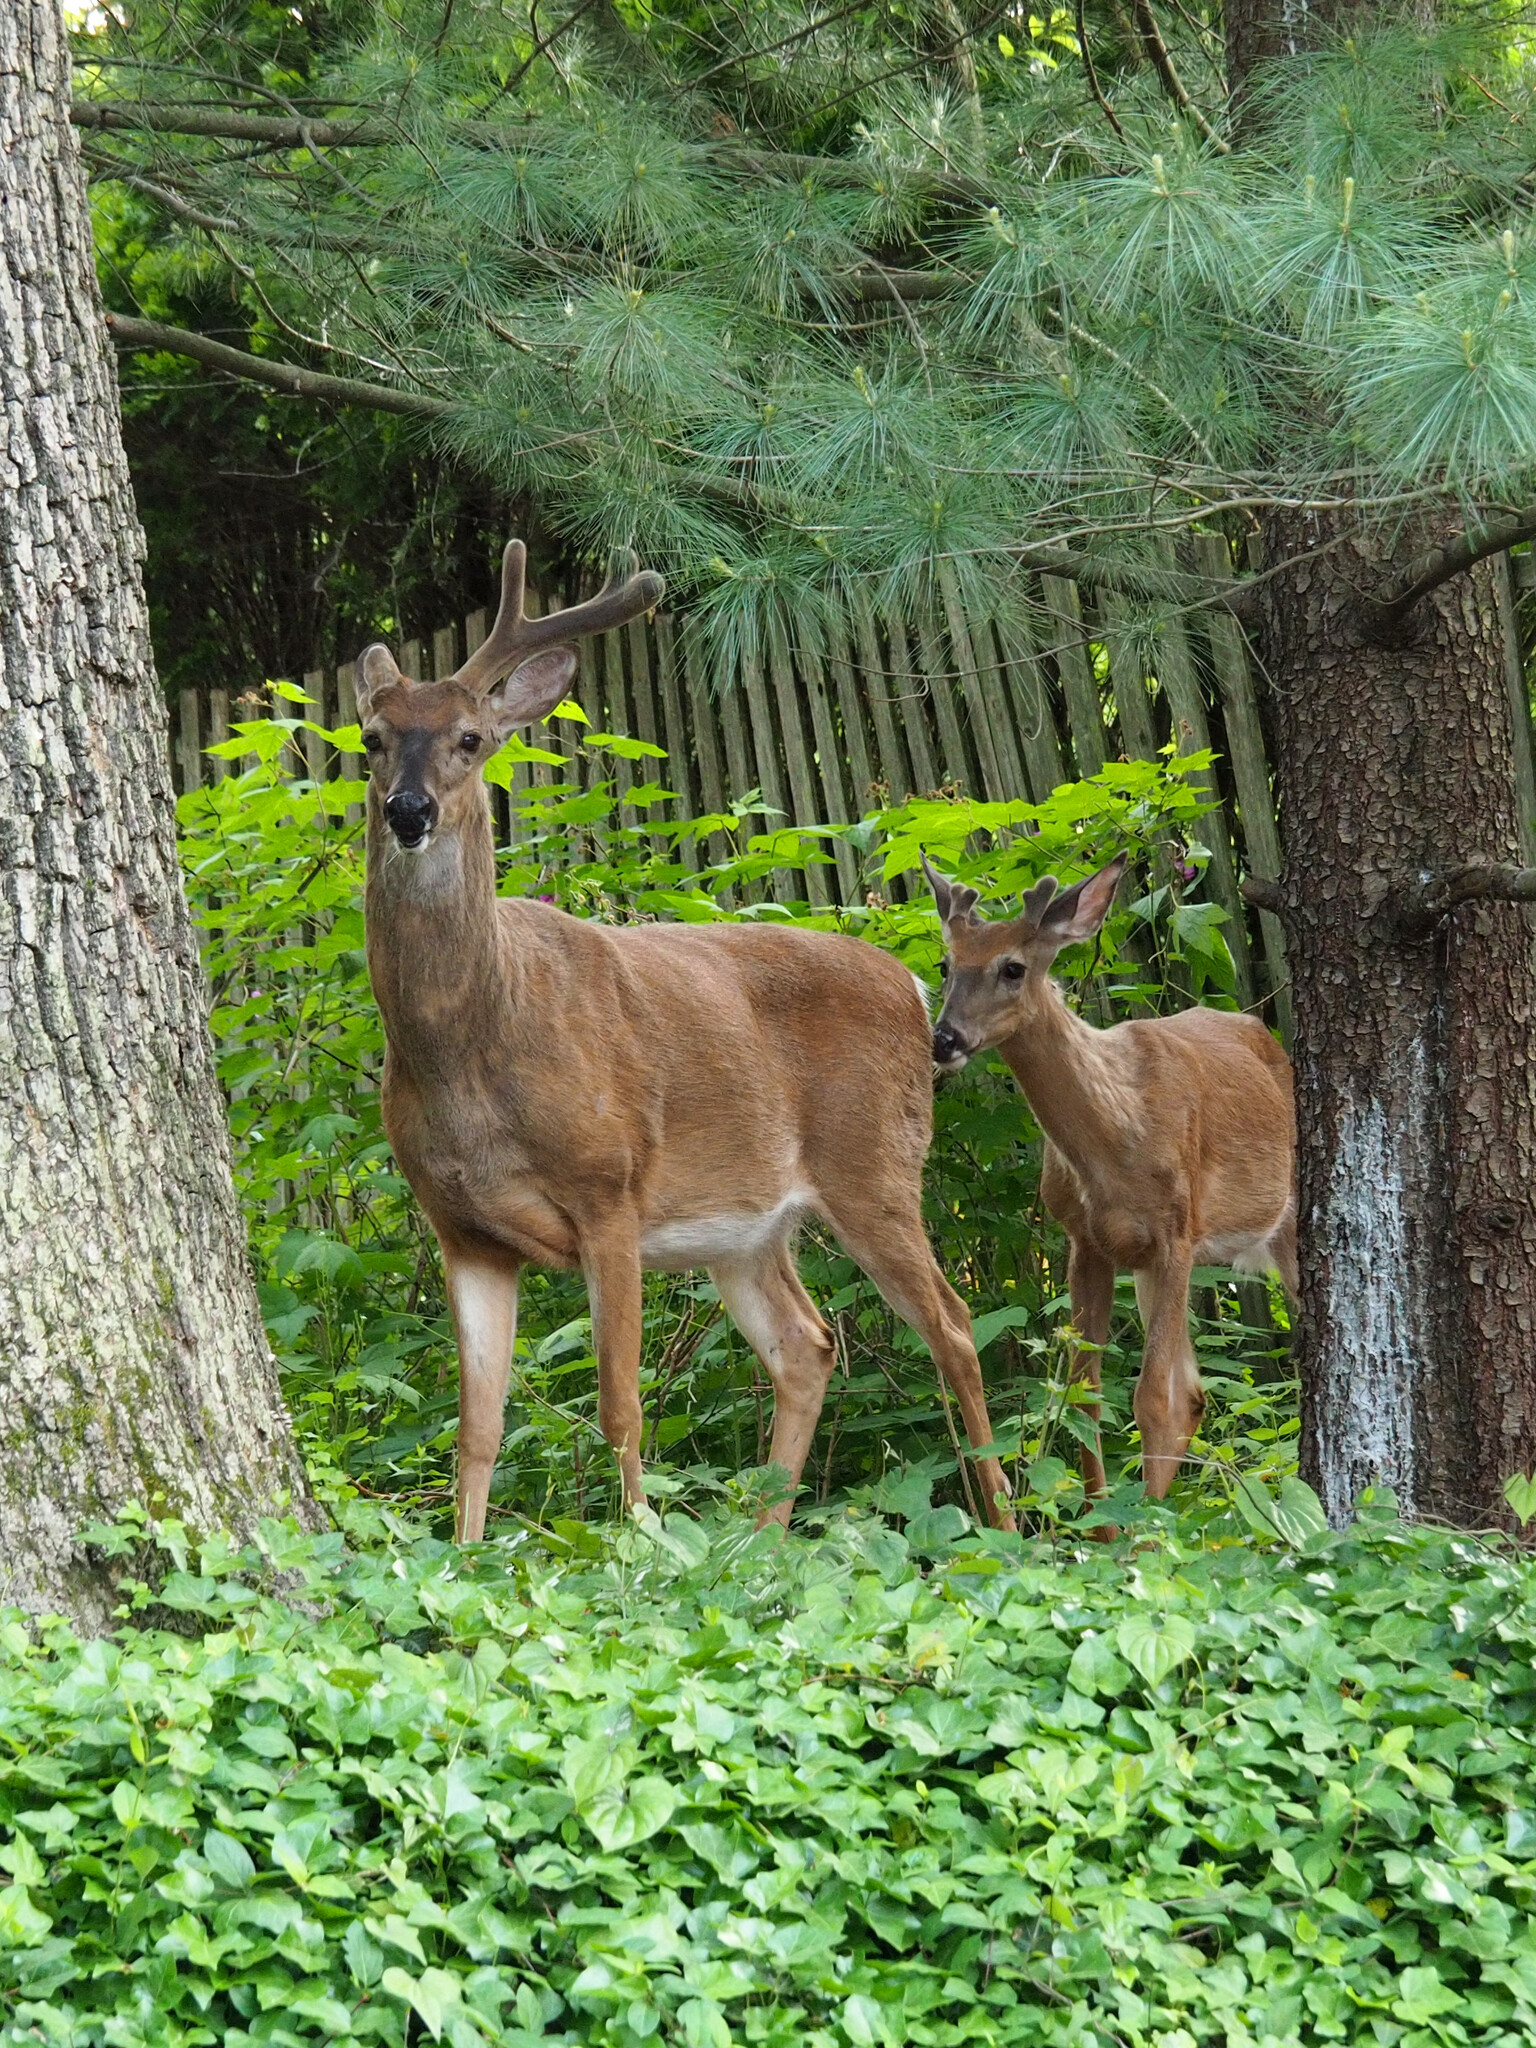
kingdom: Animalia
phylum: Chordata
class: Mammalia
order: Artiodactyla
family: Cervidae
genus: Odocoileus
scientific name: Odocoileus virginianus
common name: White-tailed deer
